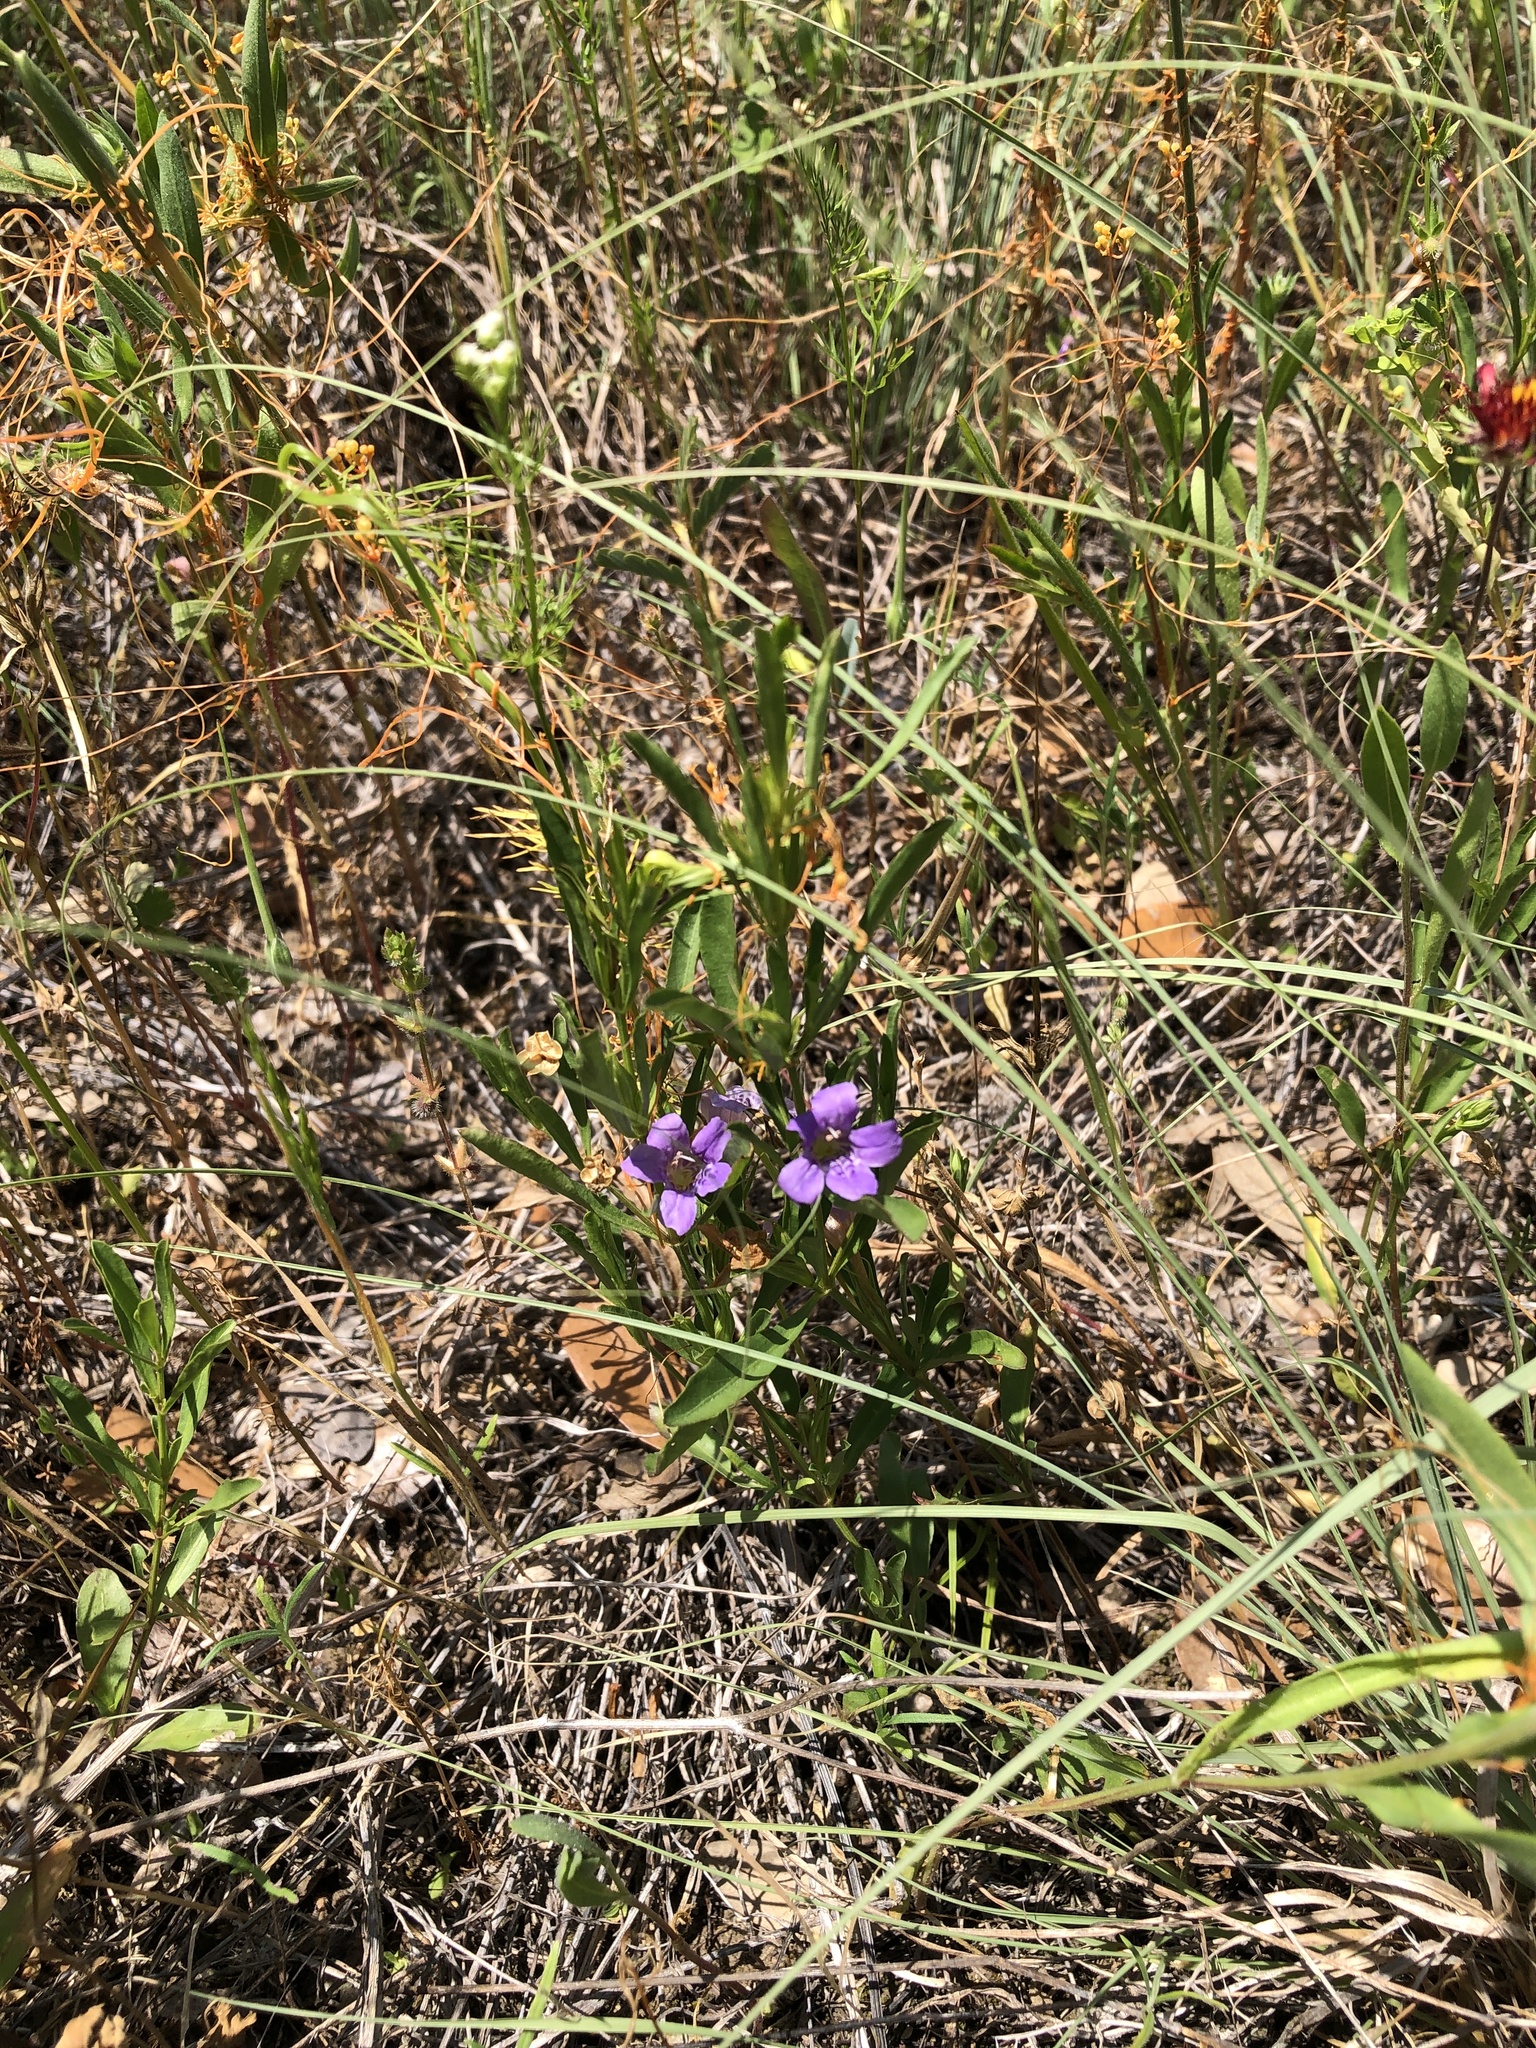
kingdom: Plantae
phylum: Tracheophyta
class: Magnoliopsida
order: Lamiales
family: Acanthaceae
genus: Dyschoriste
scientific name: Dyschoriste linearis
